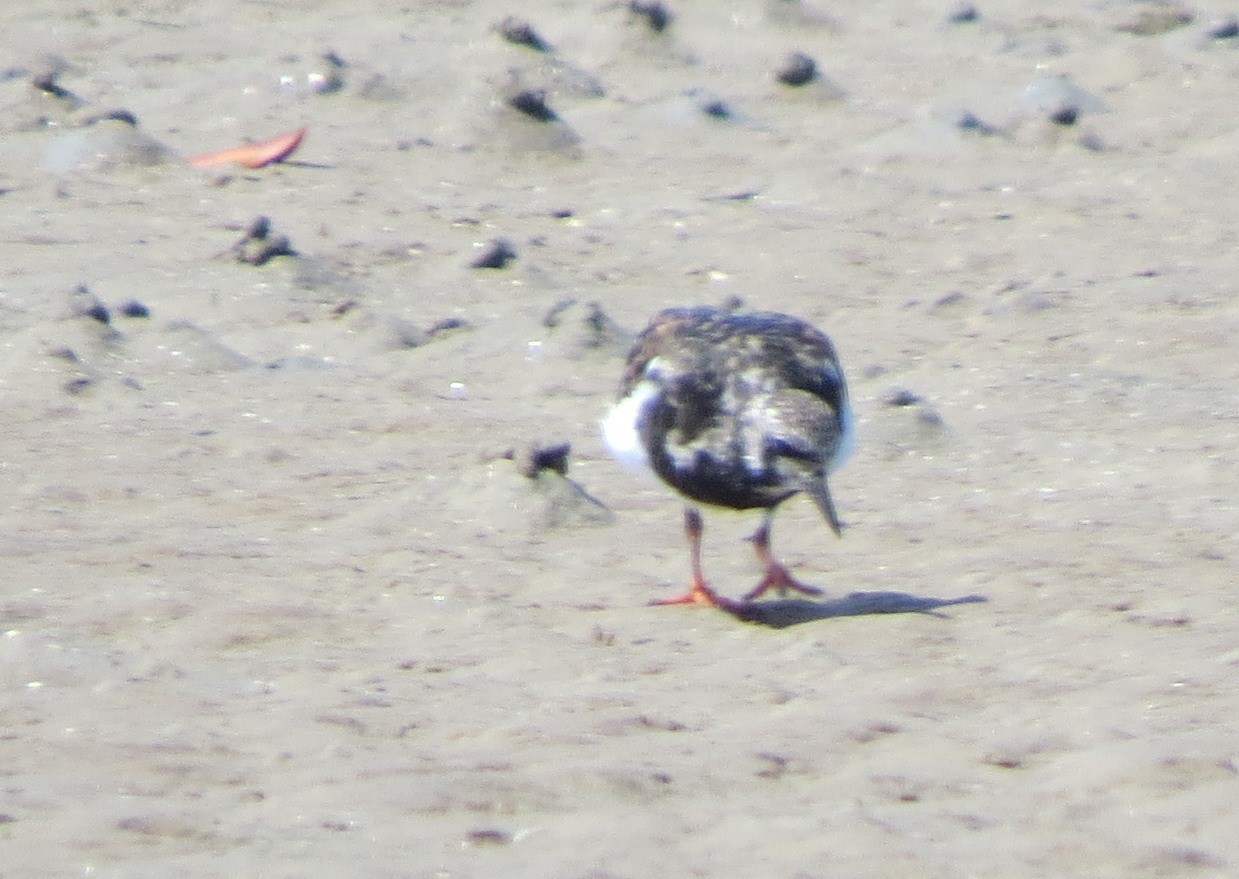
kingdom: Animalia
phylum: Chordata
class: Aves
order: Charadriiformes
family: Scolopacidae
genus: Arenaria
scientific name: Arenaria interpres
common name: Ruddy turnstone
